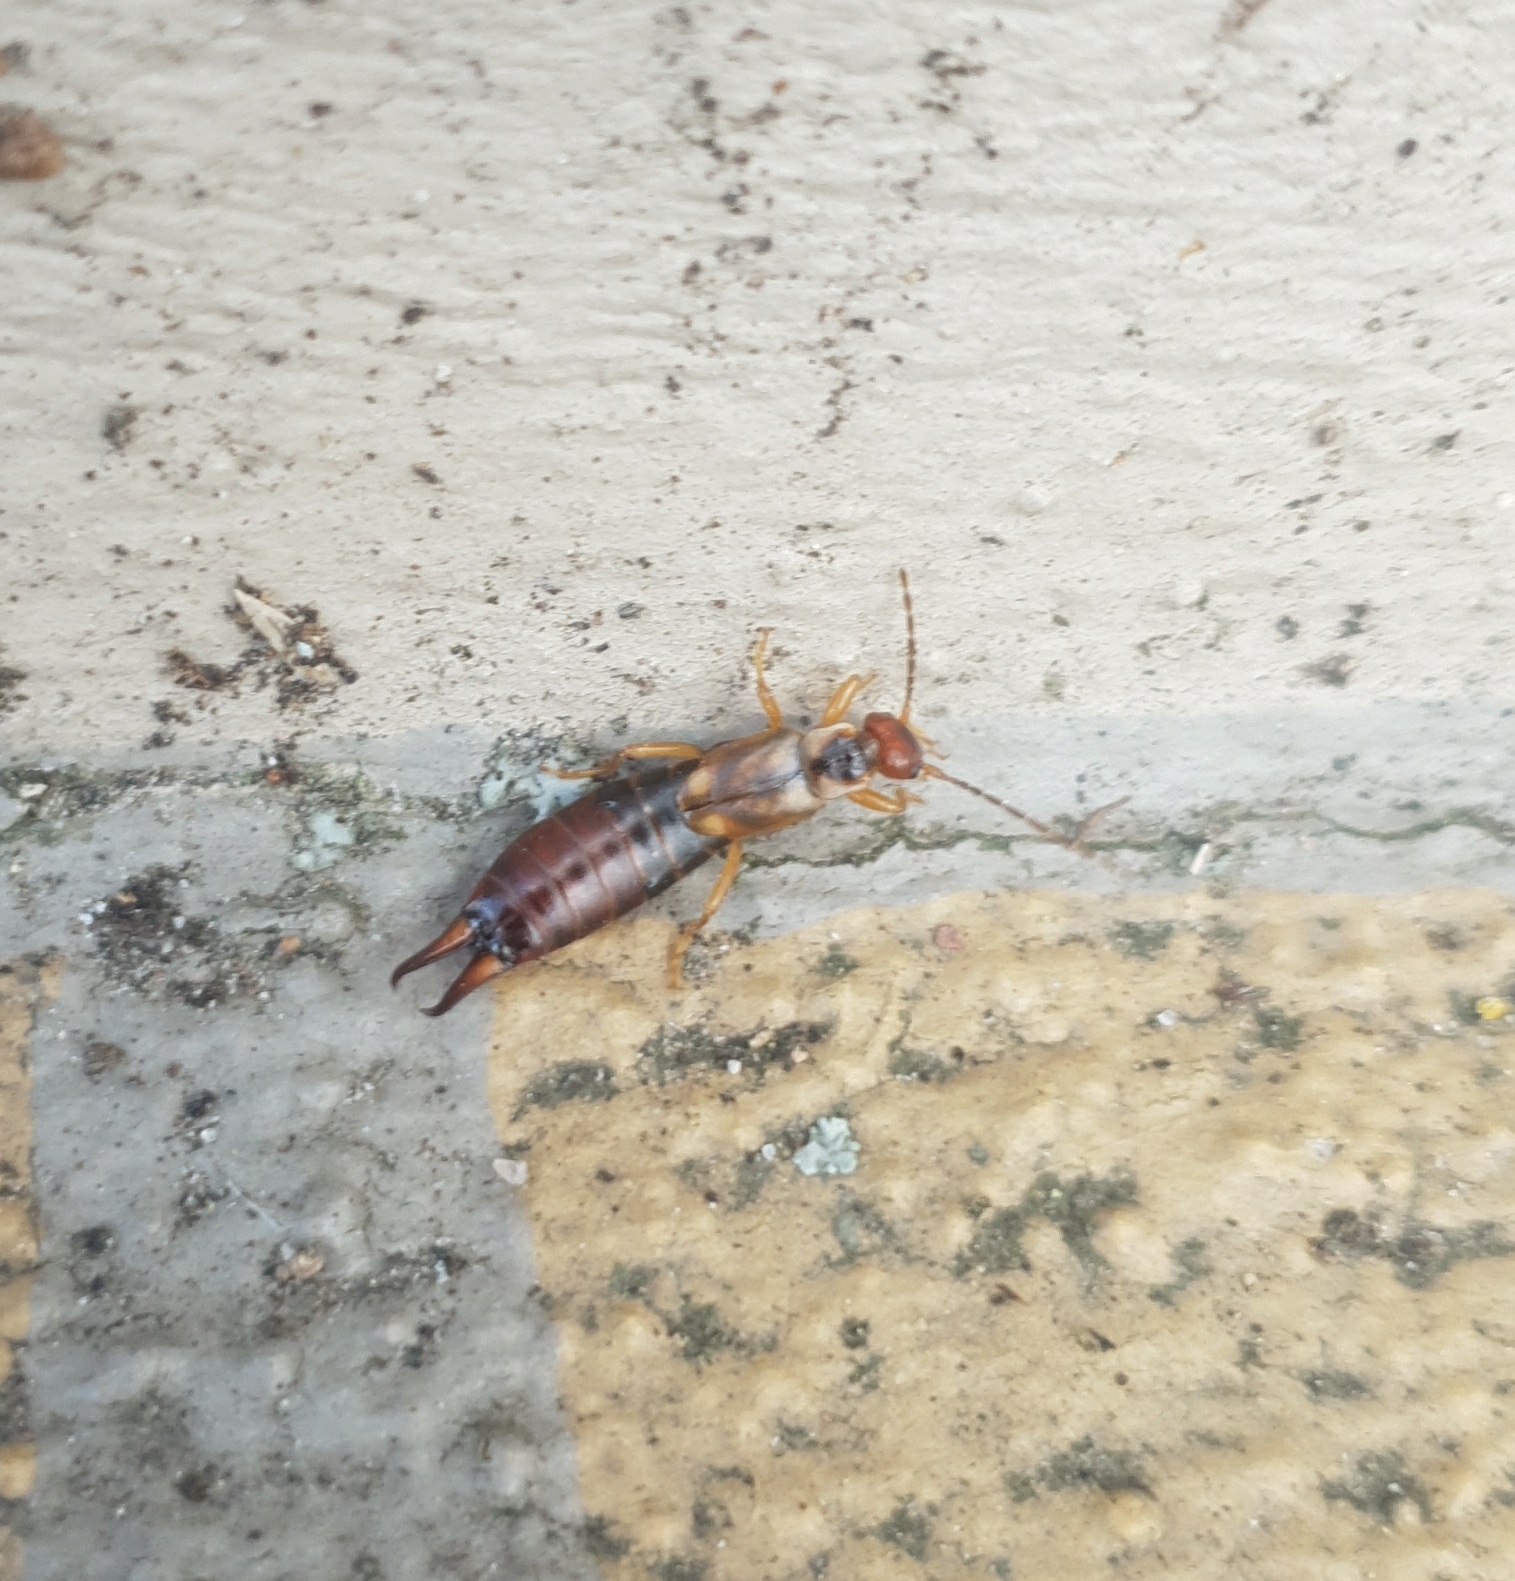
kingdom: Animalia
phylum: Arthropoda
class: Insecta
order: Dermaptera
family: Forficulidae
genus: Forficula
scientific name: Forficula
